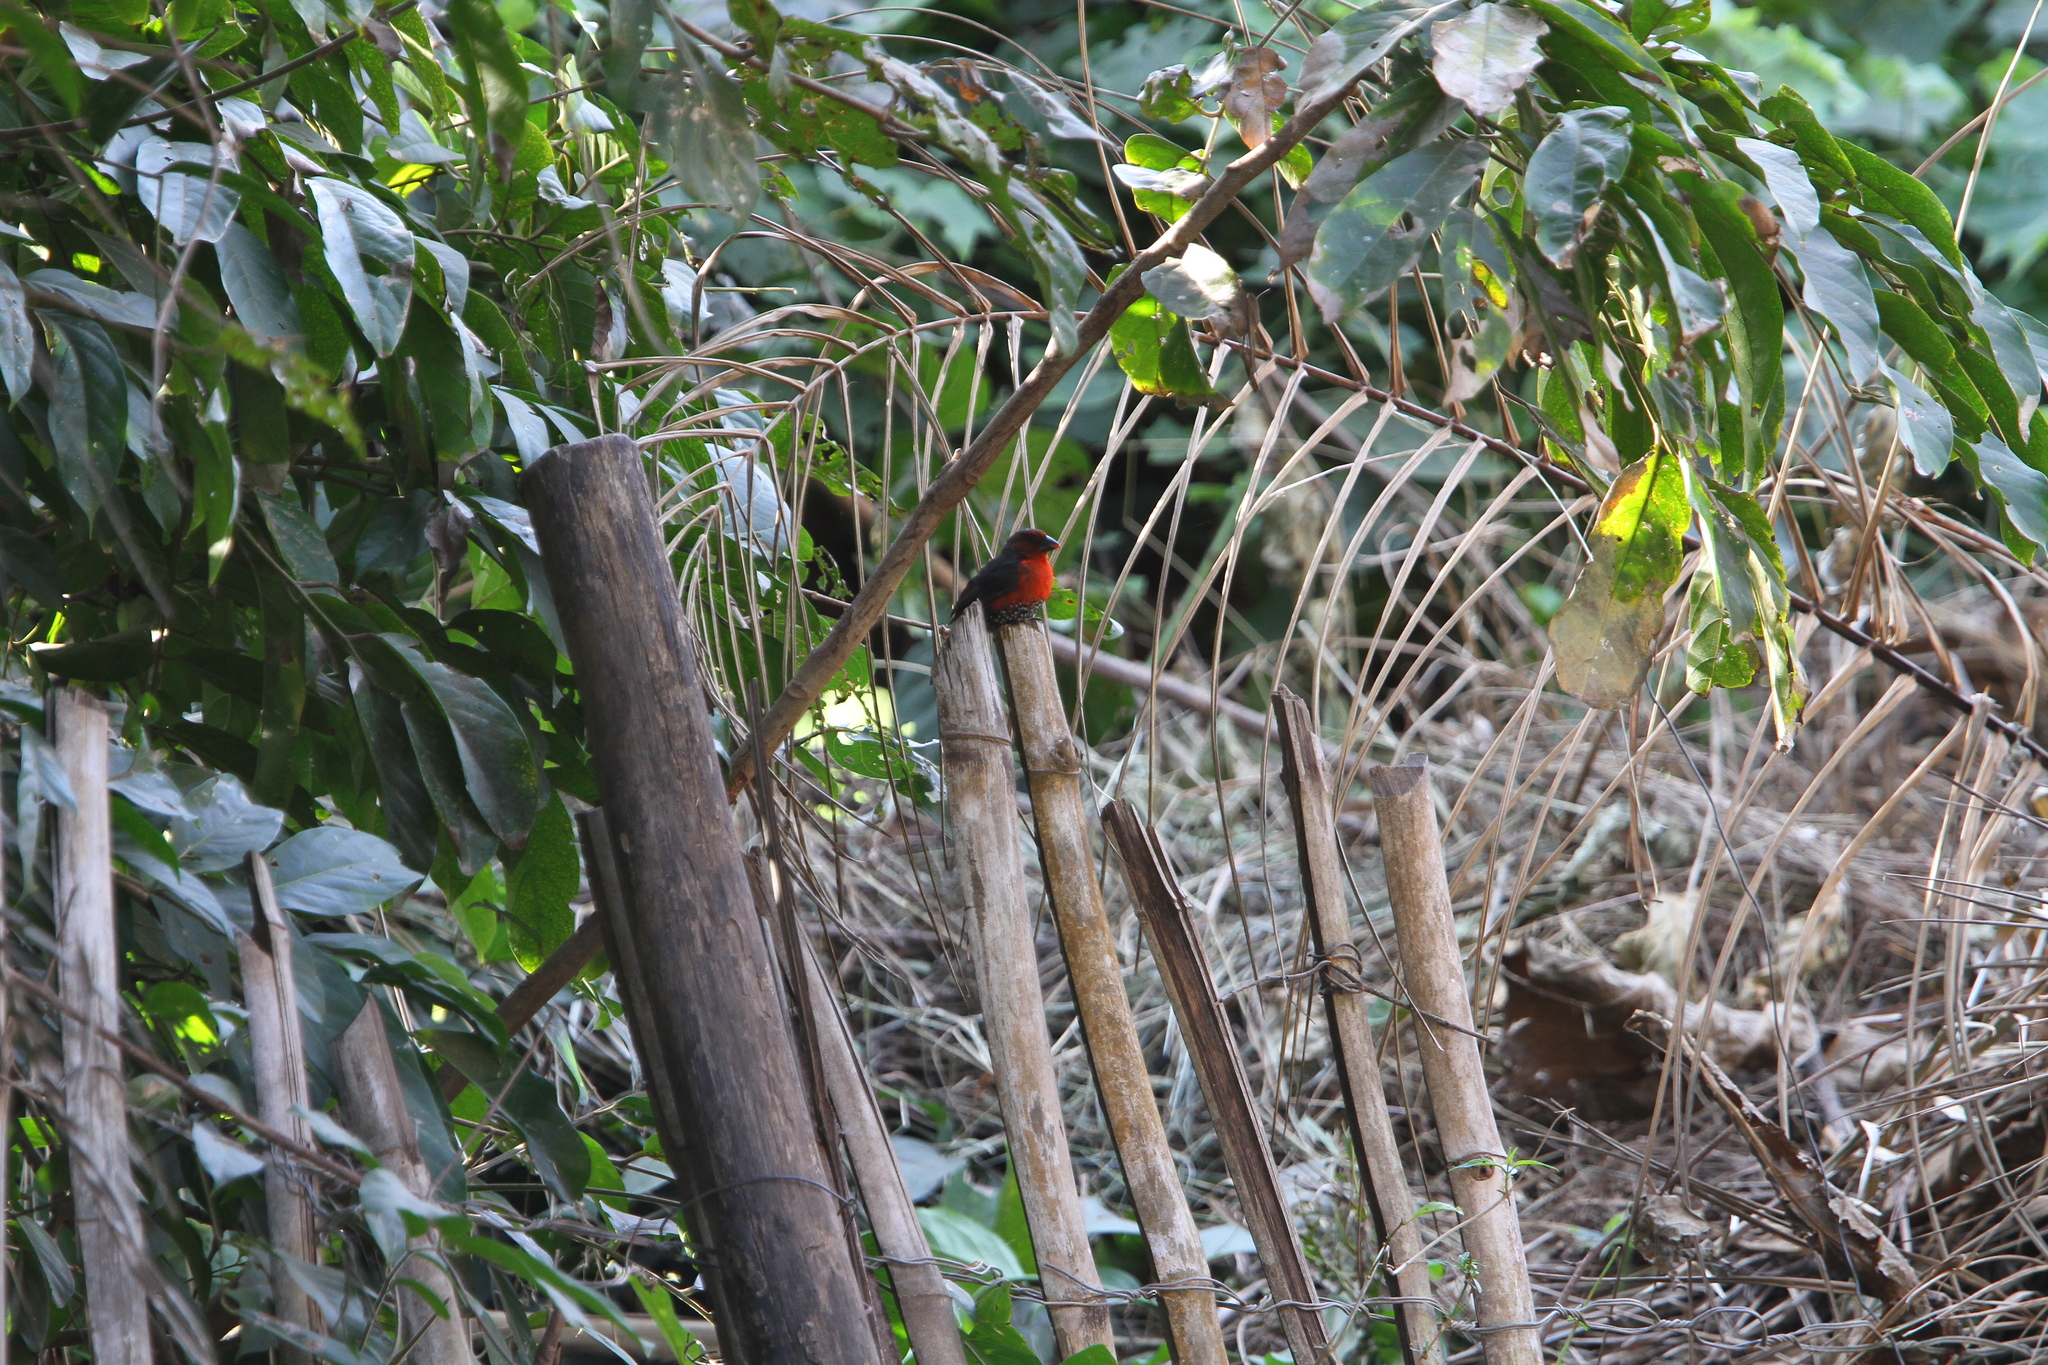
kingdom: Animalia
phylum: Chordata
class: Aves
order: Passeriformes
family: Estrildidae
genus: Spermophaga
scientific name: Spermophaga haematina
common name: Western bluebill
